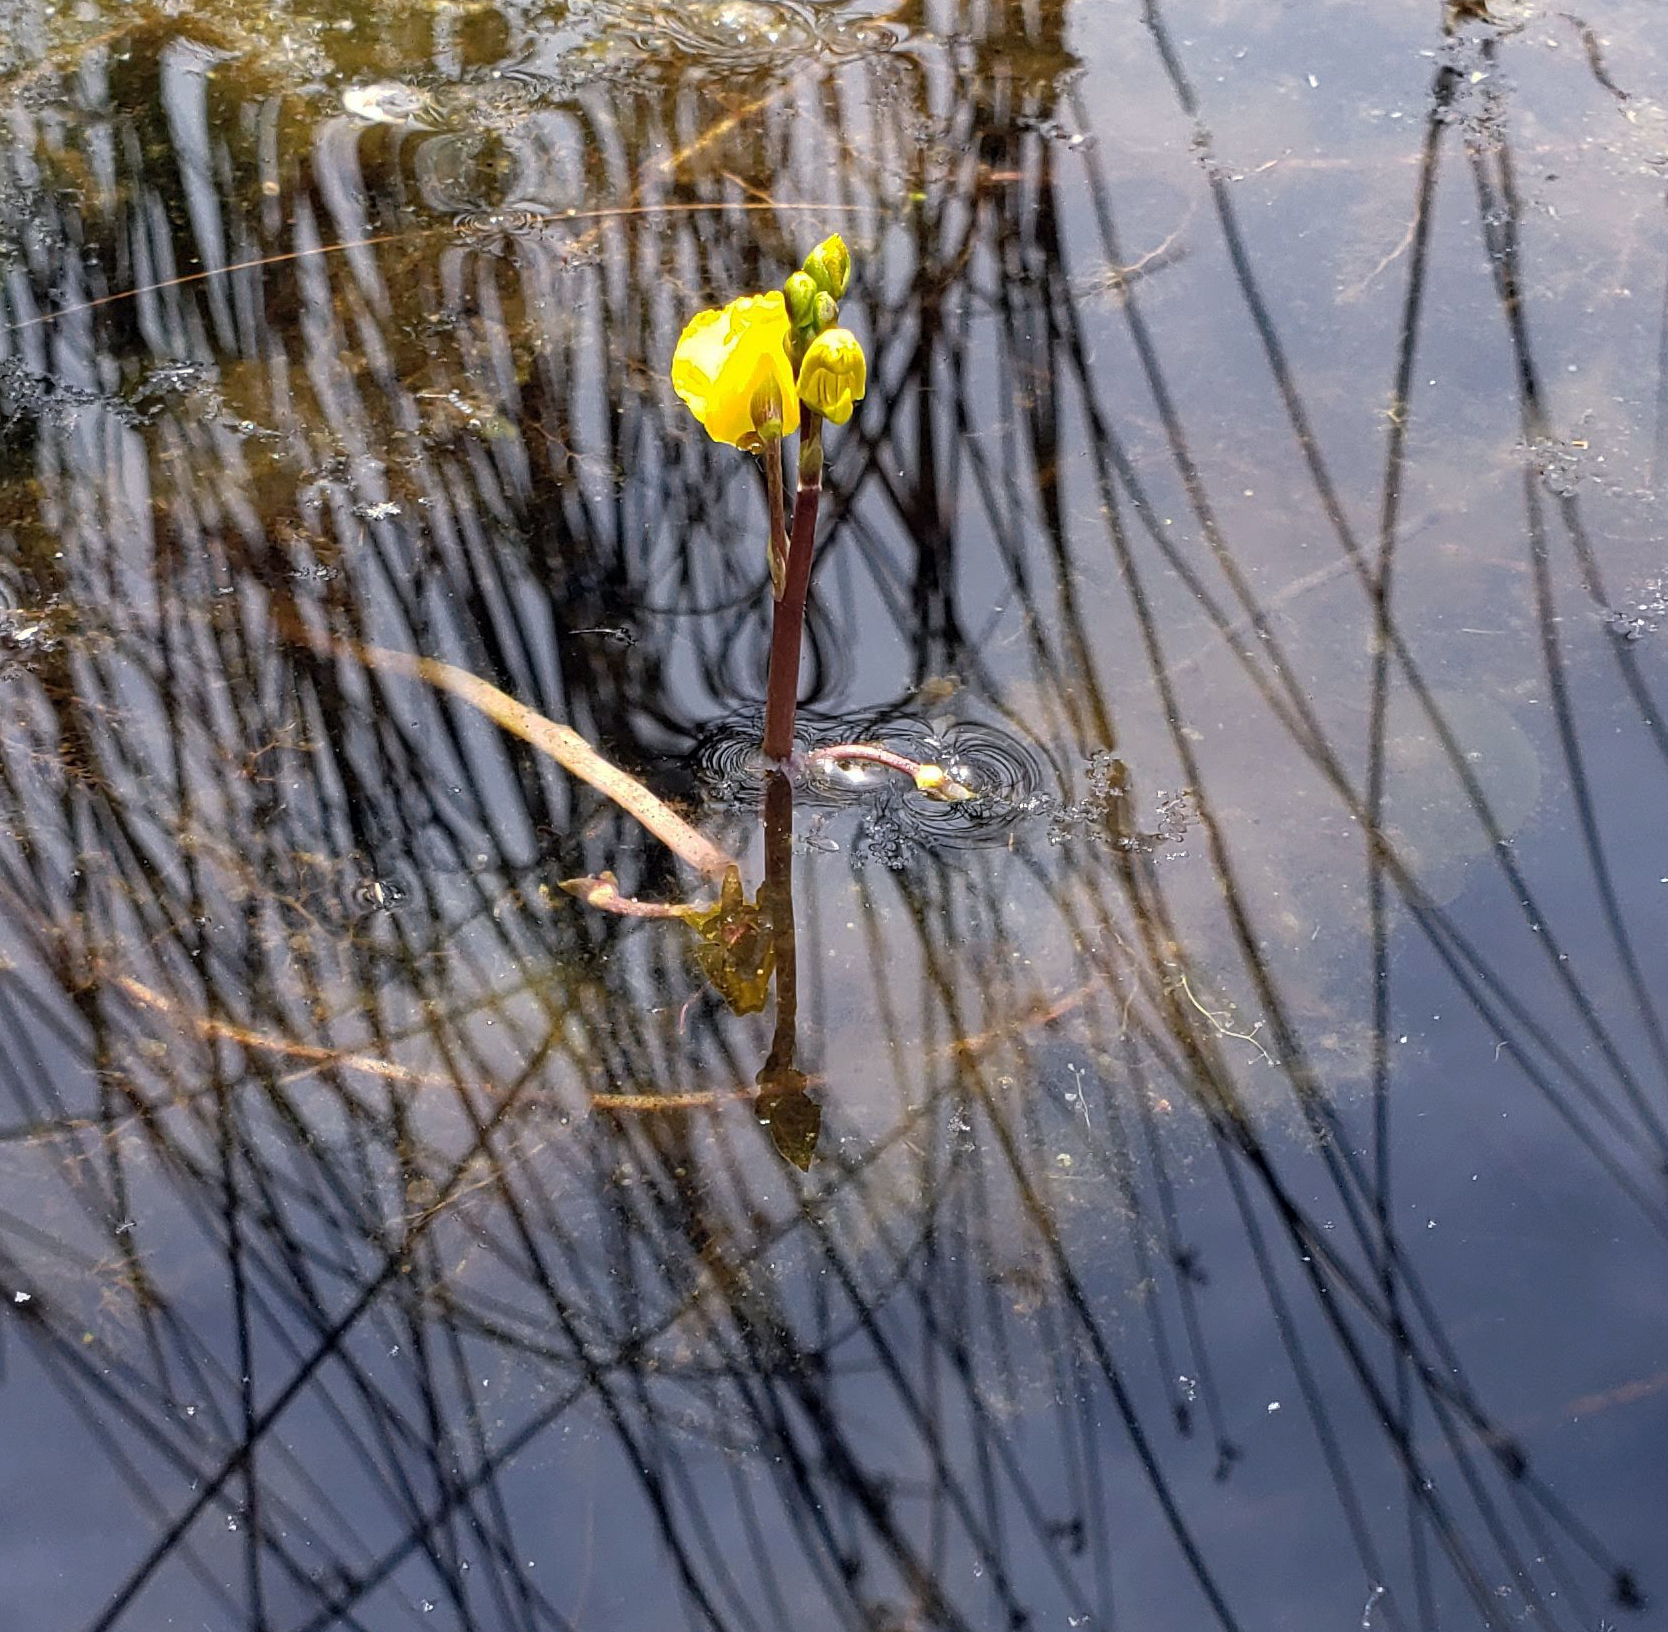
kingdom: Plantae
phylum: Tracheophyta
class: Magnoliopsida
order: Lamiales
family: Lentibulariaceae
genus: Utricularia
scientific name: Utricularia macrorhiza
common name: Common bladderwort
